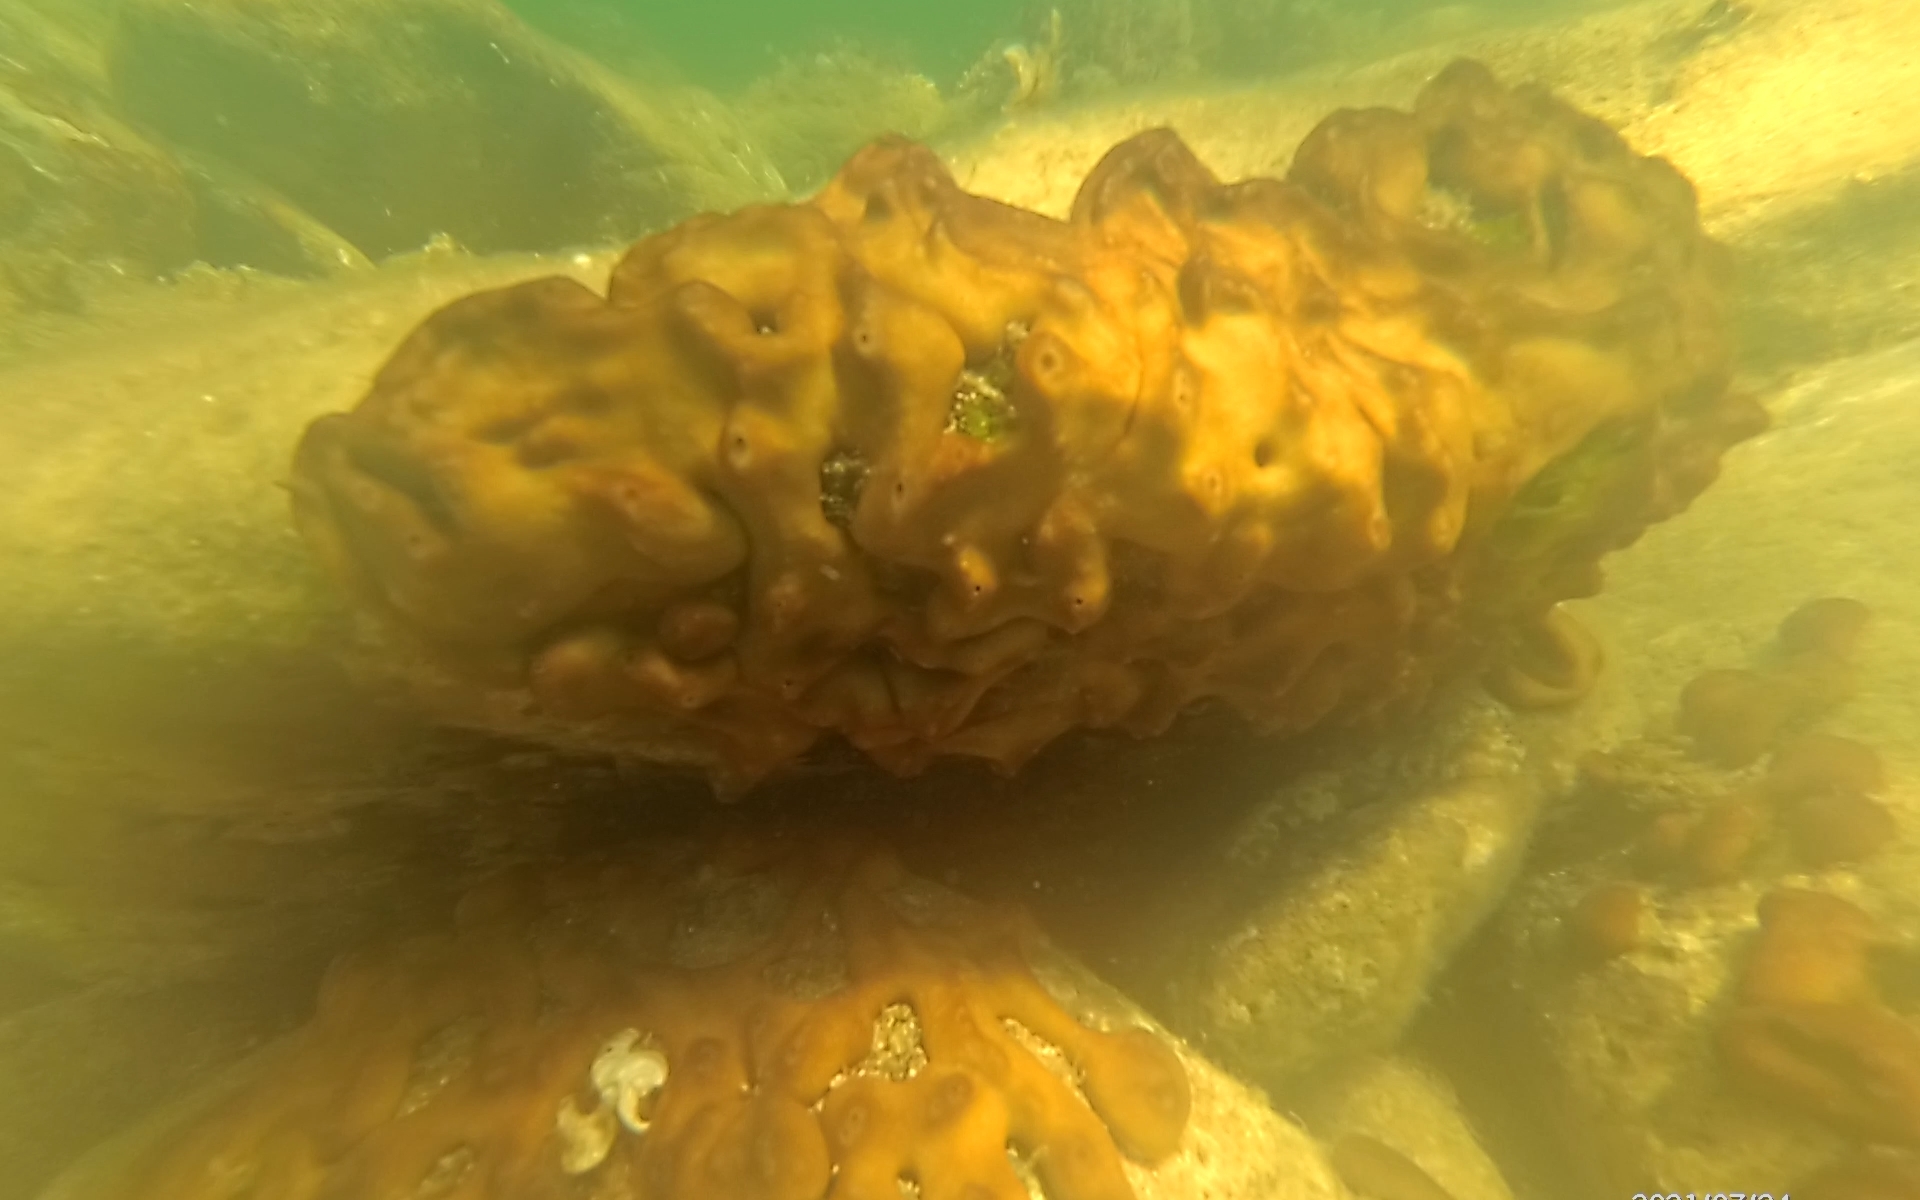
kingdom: Animalia
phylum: Porifera
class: Demospongiae
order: Chondrillida
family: Chondrillidae
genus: Chondrilla
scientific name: Chondrilla nucula
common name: Chicken liver sponge
